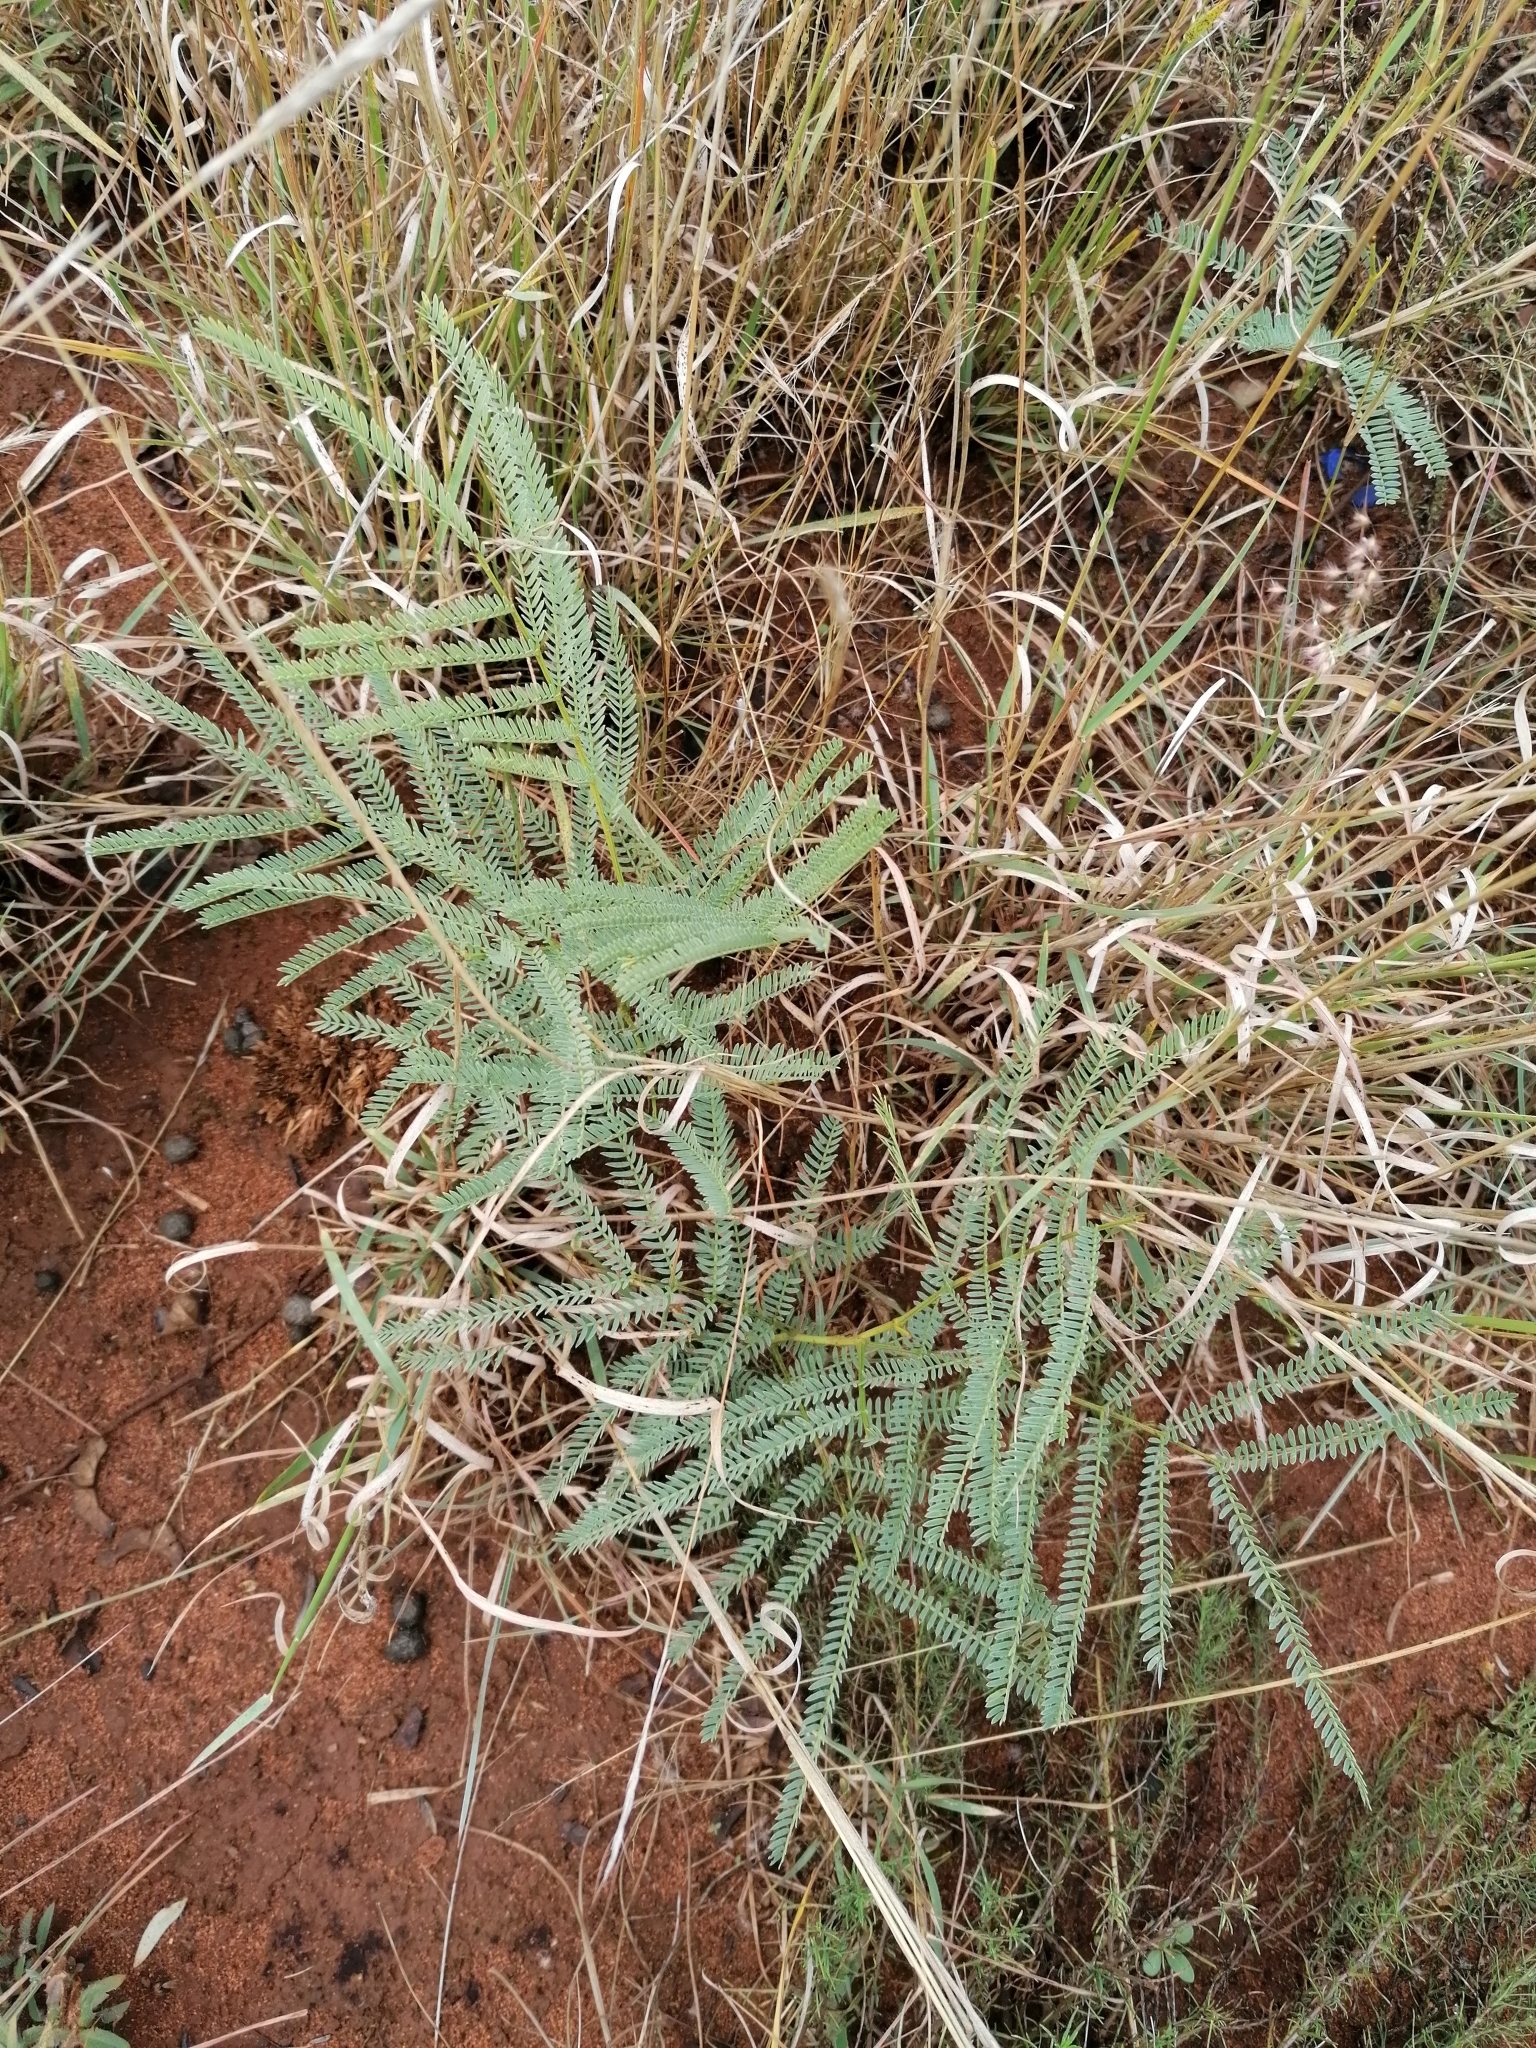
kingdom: Plantae
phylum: Tracheophyta
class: Magnoliopsida
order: Fabales
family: Fabaceae
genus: Elephantorrhiza
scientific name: Elephantorrhiza elephantina
